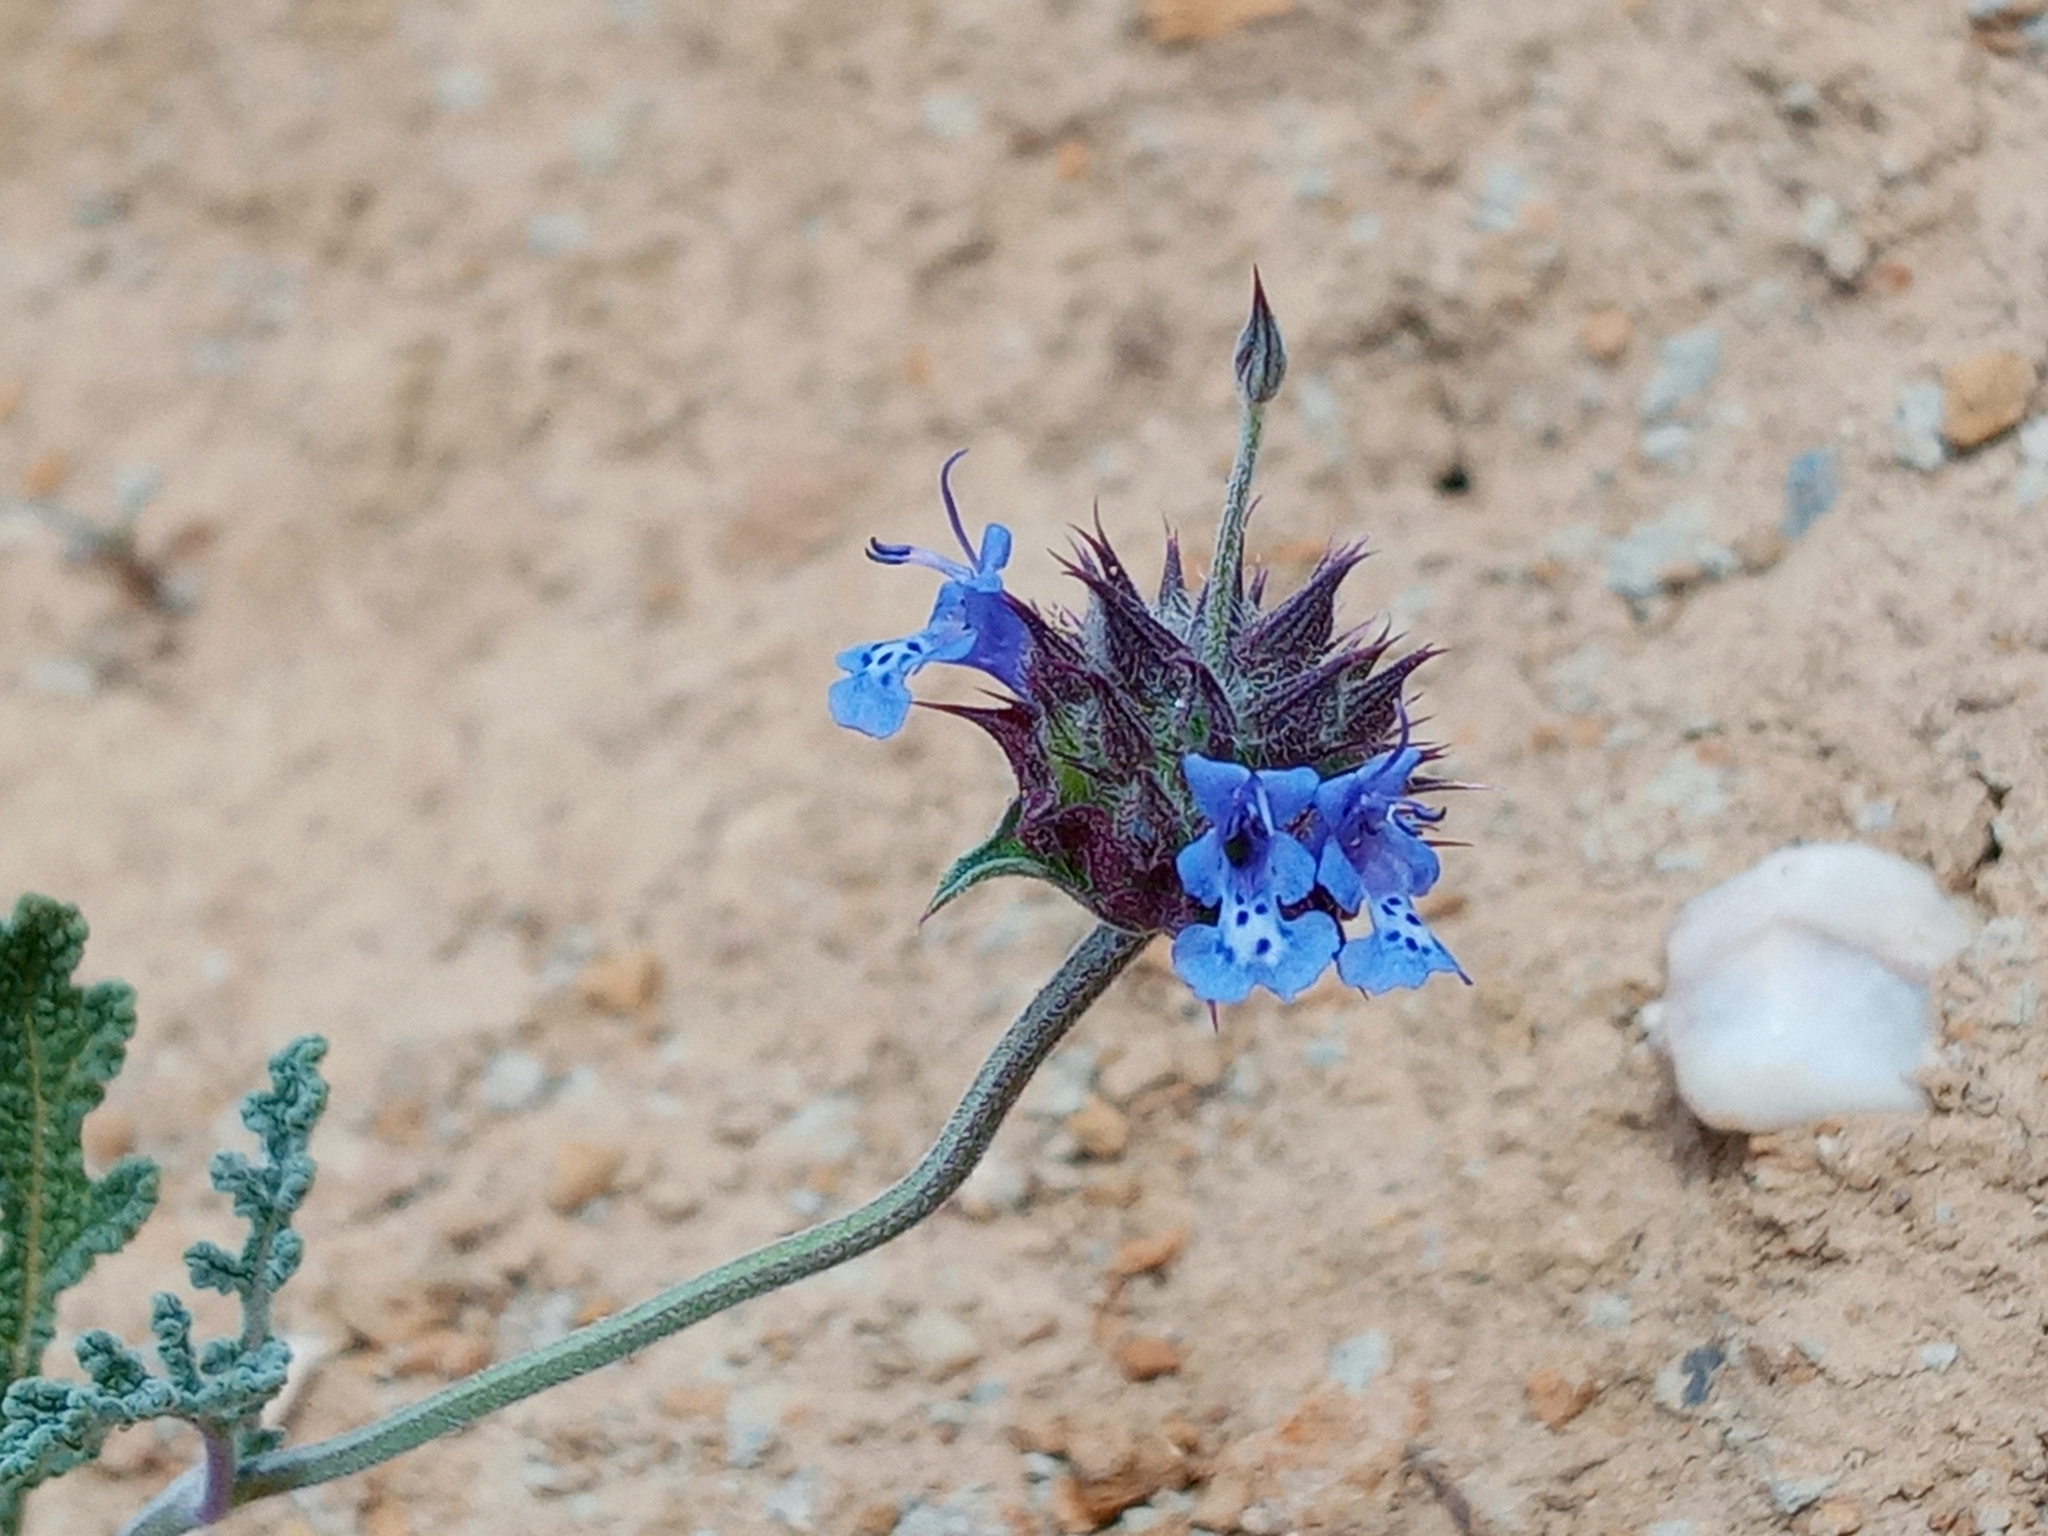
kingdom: Plantae
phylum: Tracheophyta
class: Magnoliopsida
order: Lamiales
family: Lamiaceae
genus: Salvia
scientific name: Salvia columbariae
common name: Chia
